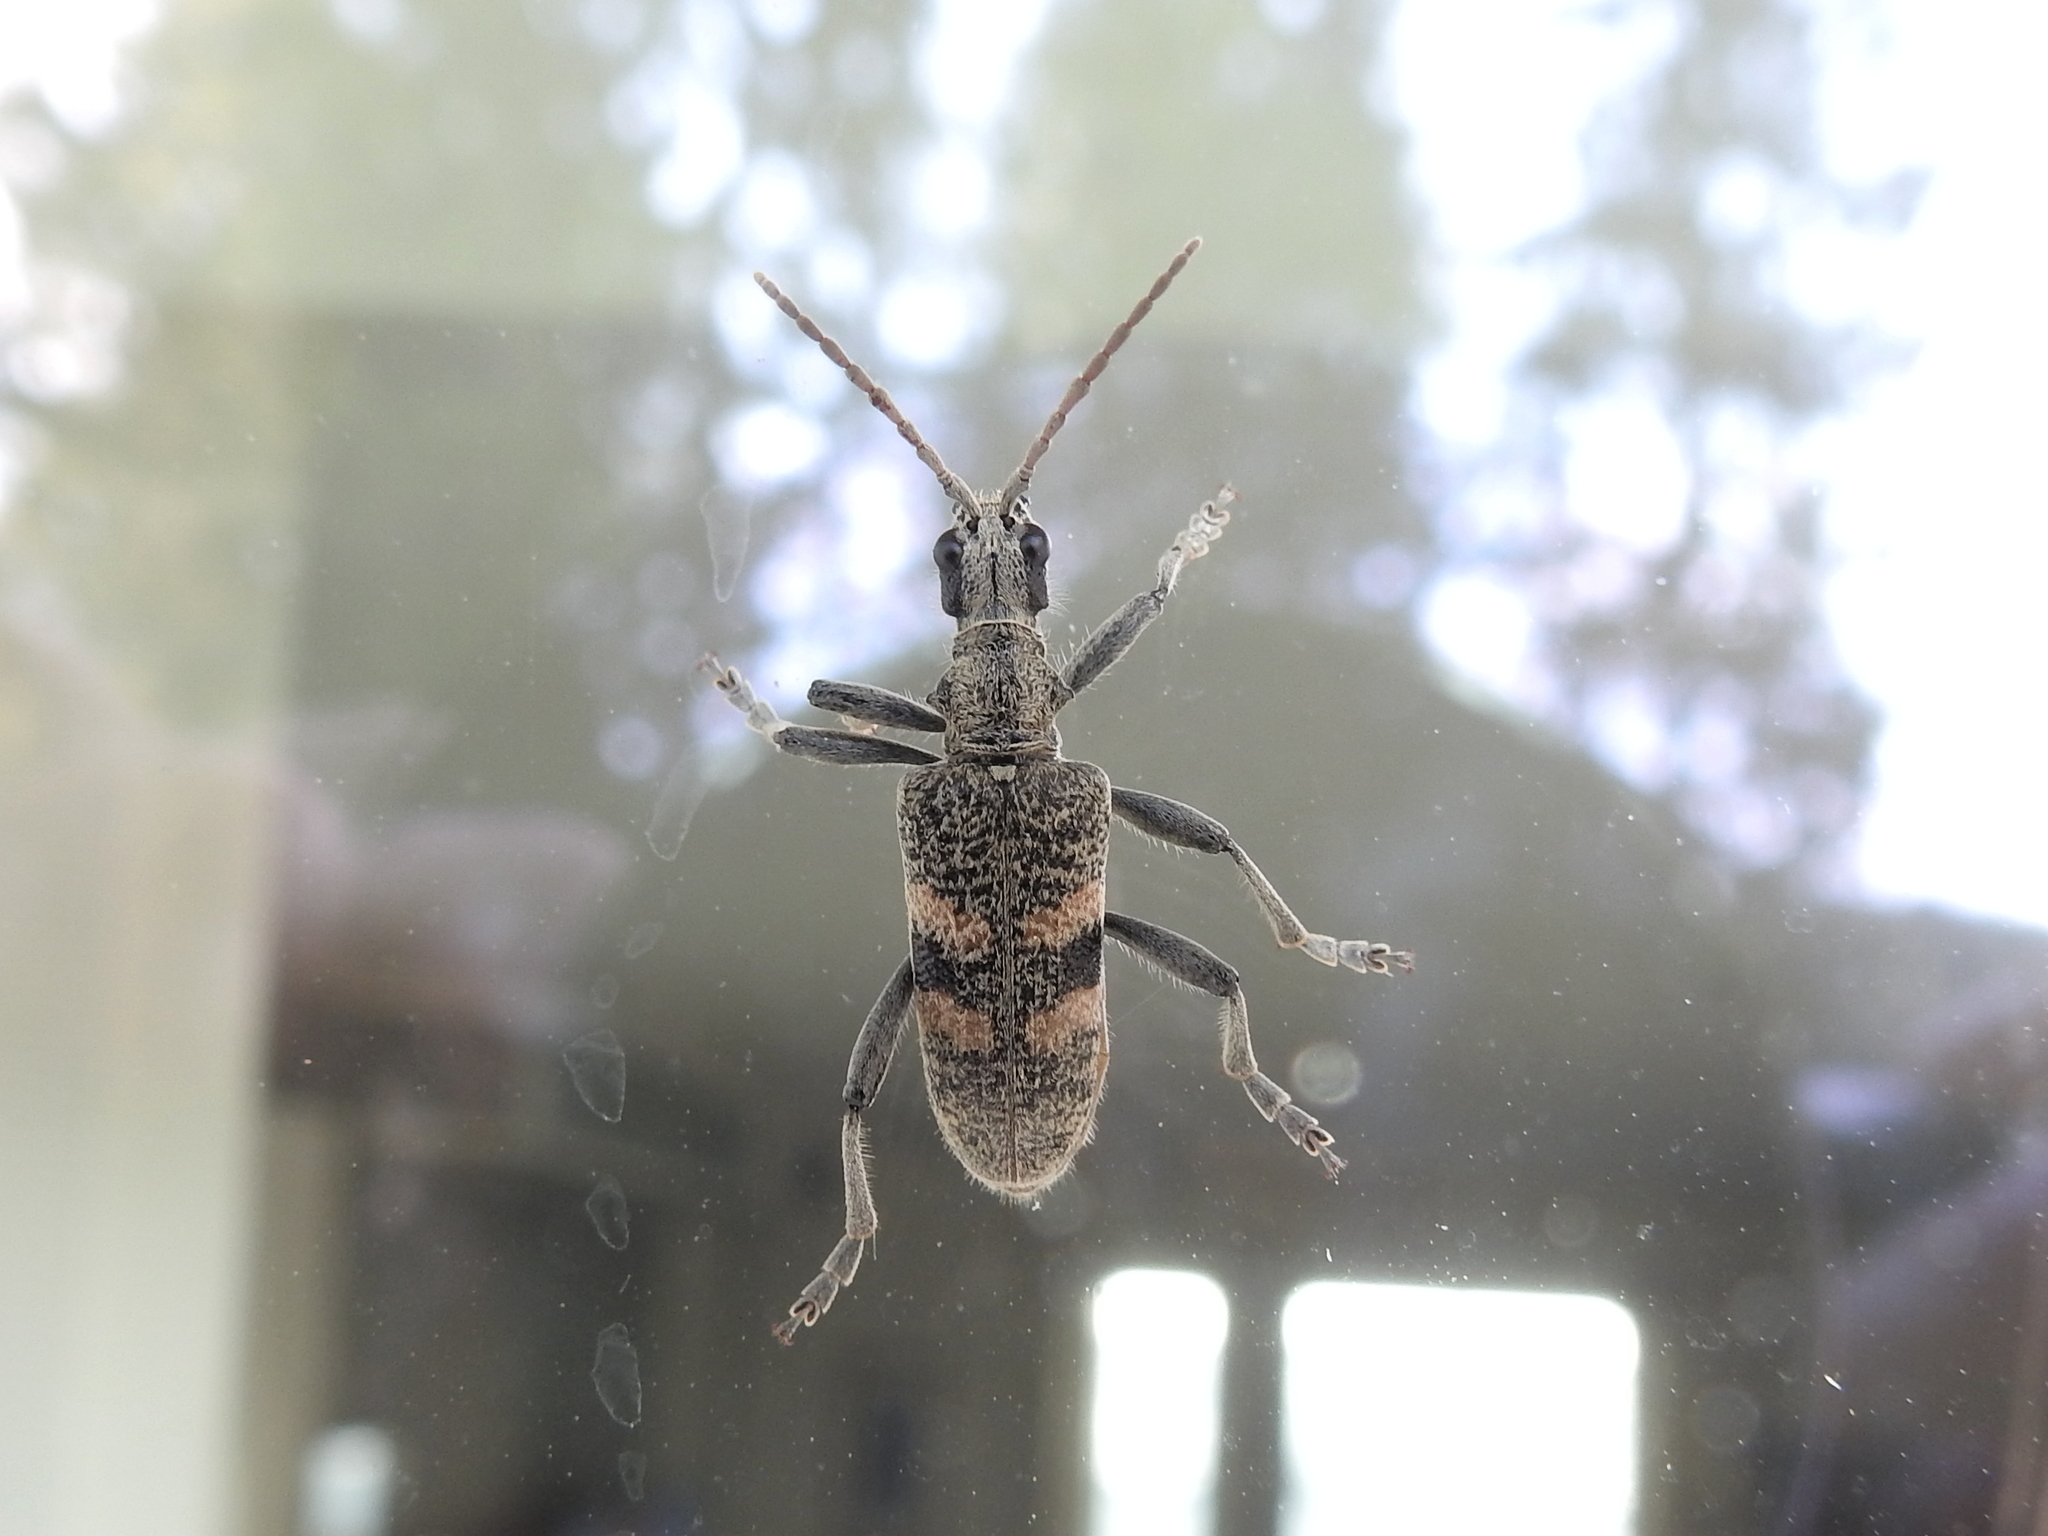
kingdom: Animalia
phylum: Arthropoda
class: Insecta
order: Coleoptera
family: Cerambycidae
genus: Rhagium
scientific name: Rhagium mordax
